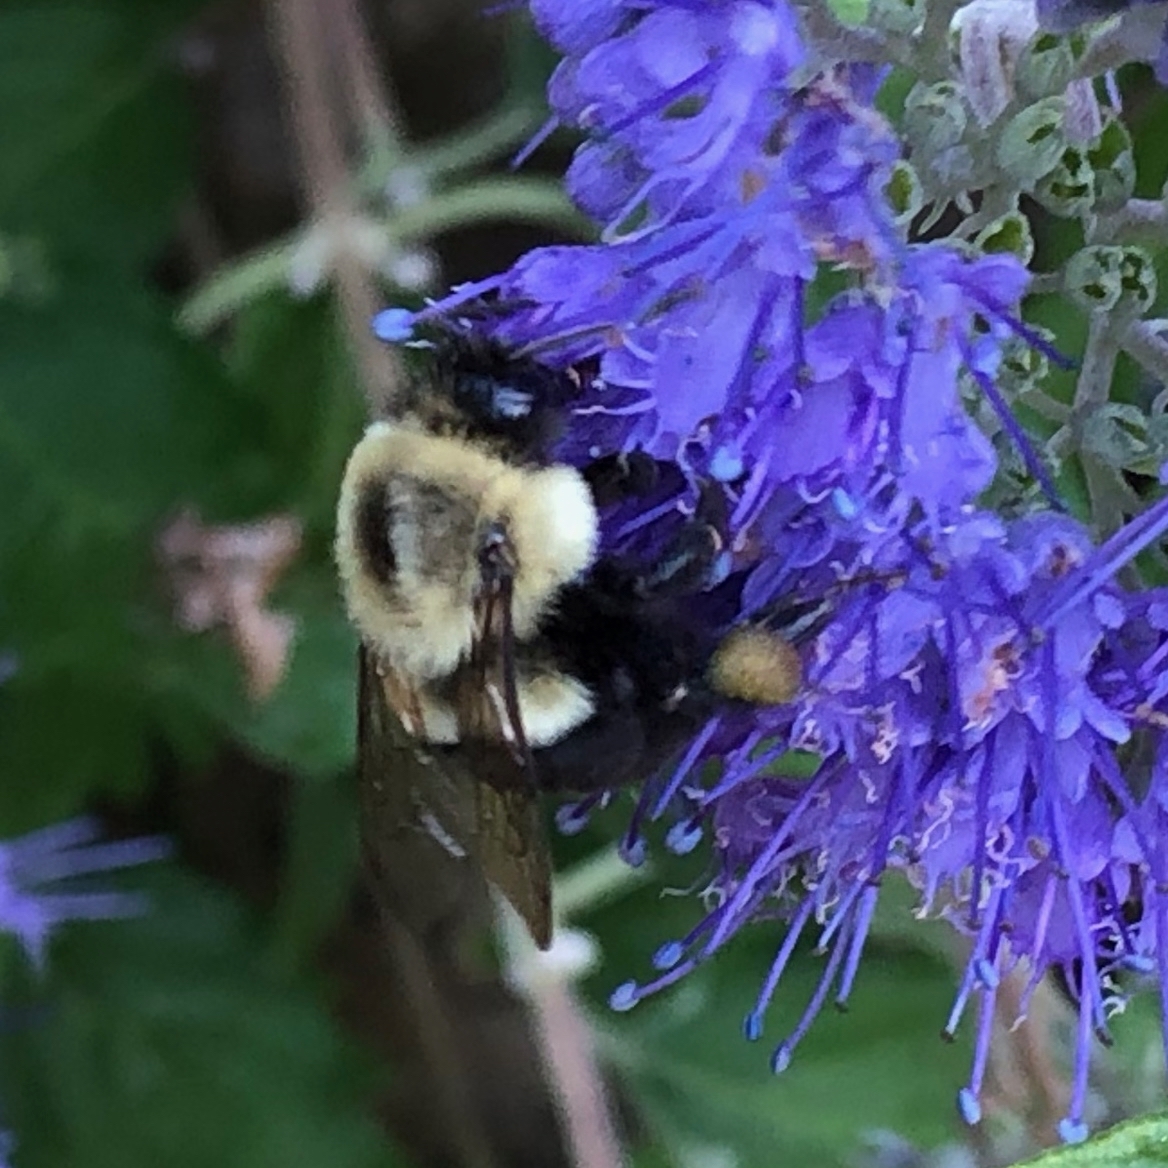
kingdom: Animalia
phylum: Arthropoda
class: Insecta
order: Hymenoptera
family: Apidae
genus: Bombus
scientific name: Bombus impatiens
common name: Common eastern bumble bee
